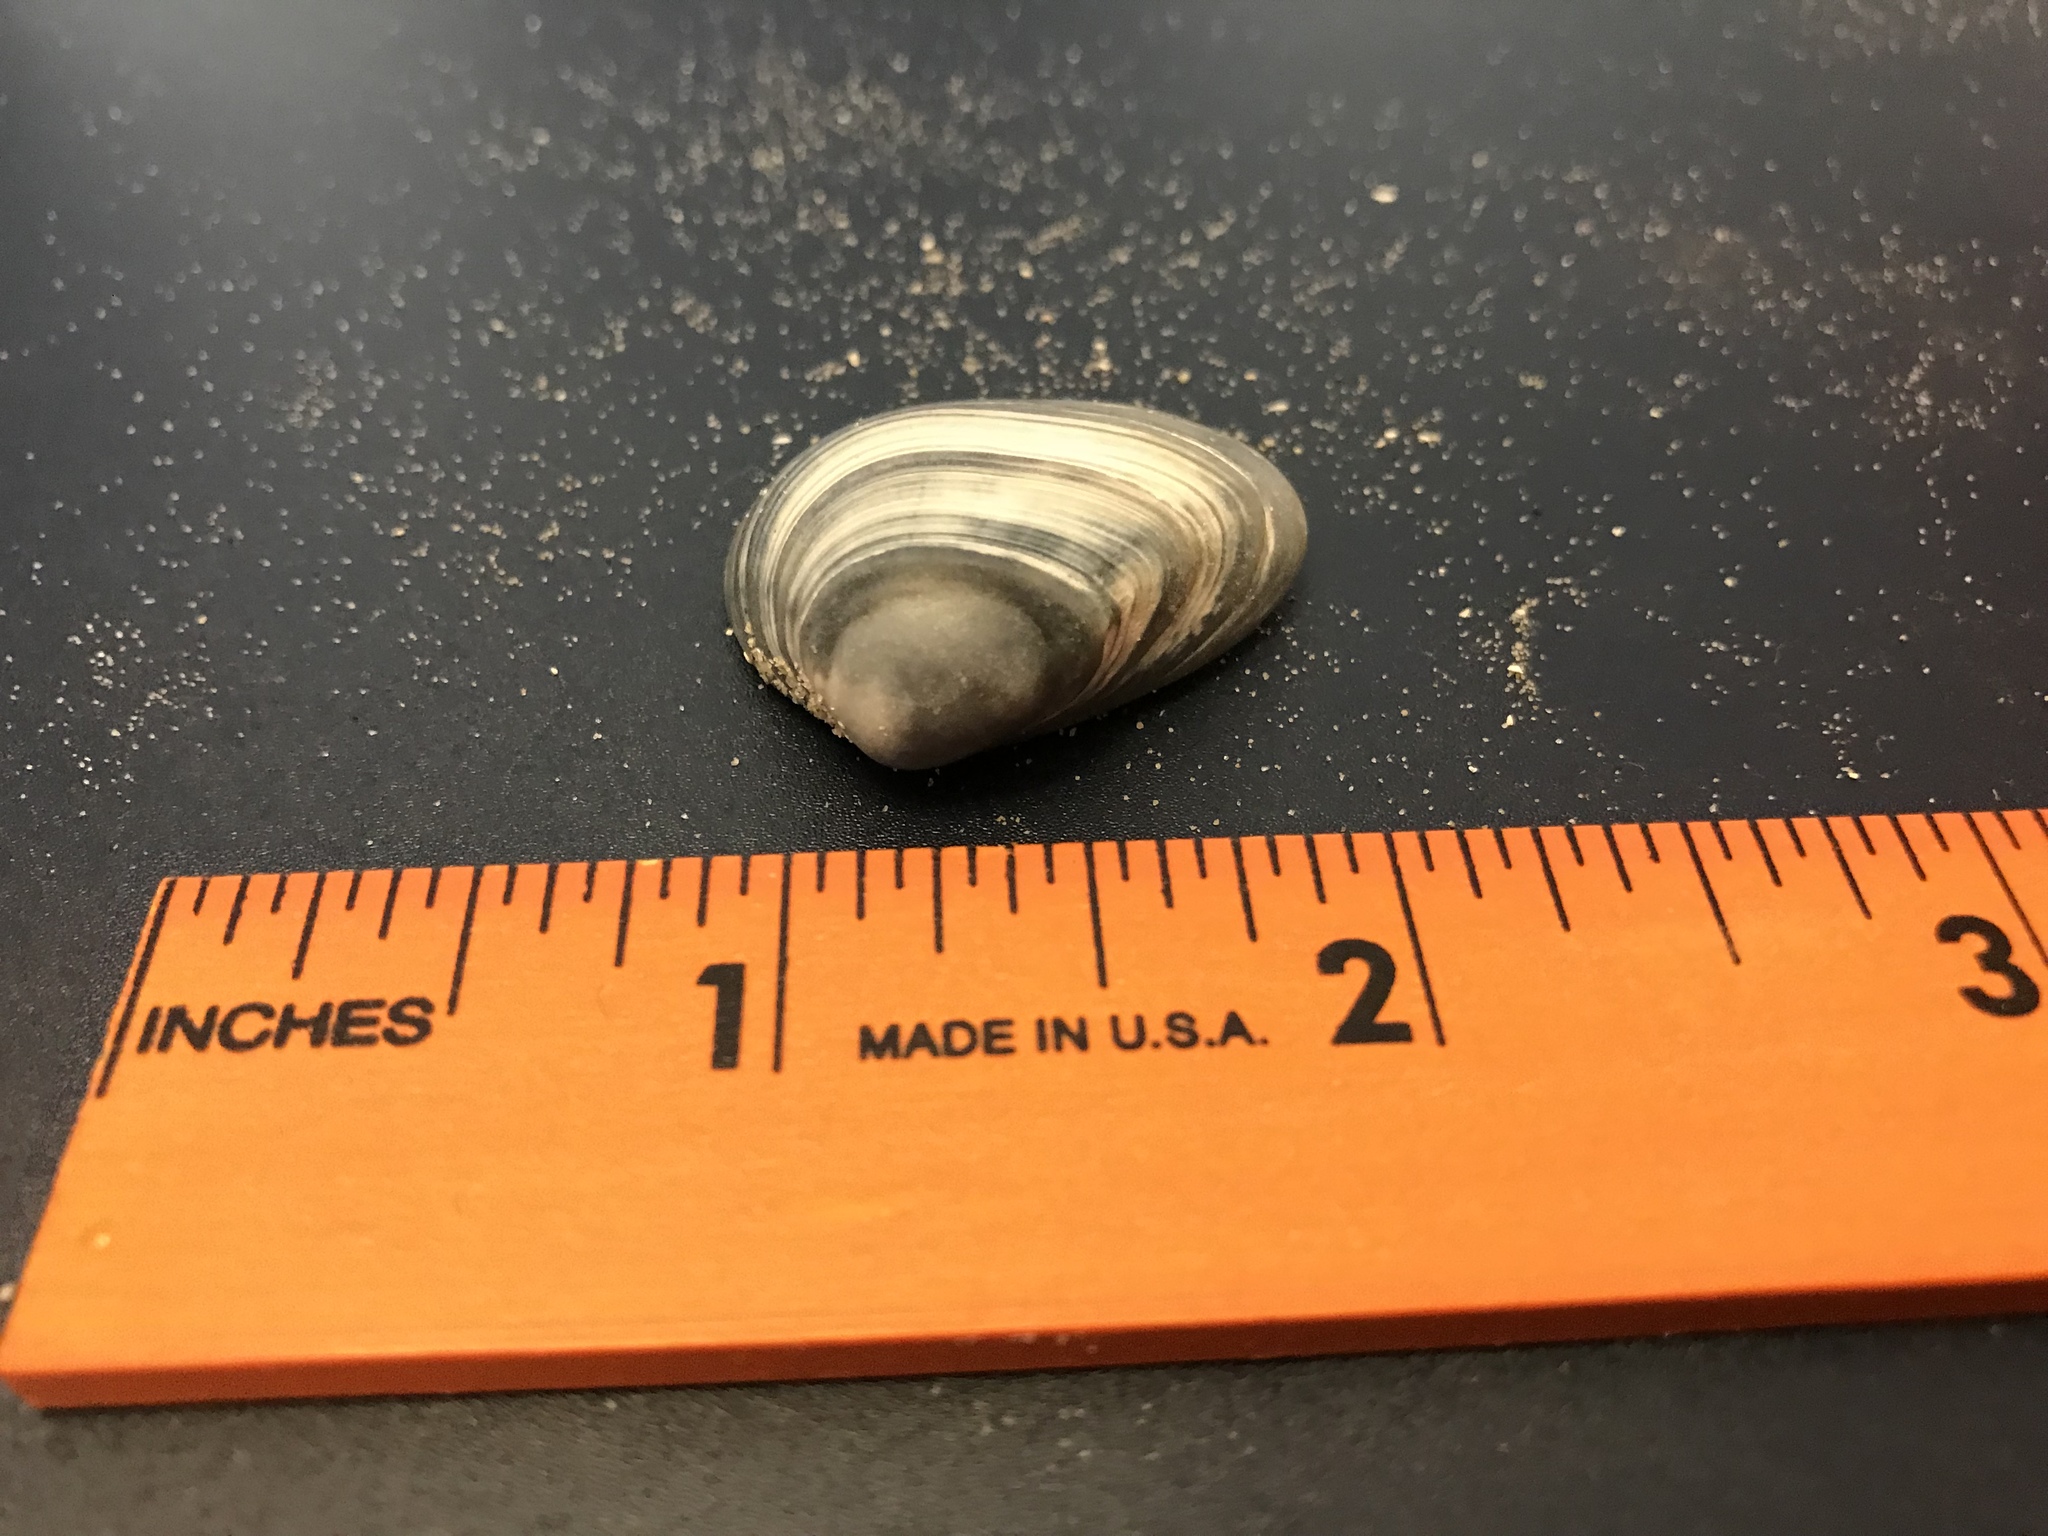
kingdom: Animalia
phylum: Mollusca
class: Bivalvia
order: Venerida
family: Mactridae
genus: Rangia
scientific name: Rangia cuneata
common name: Atlantic rangia
